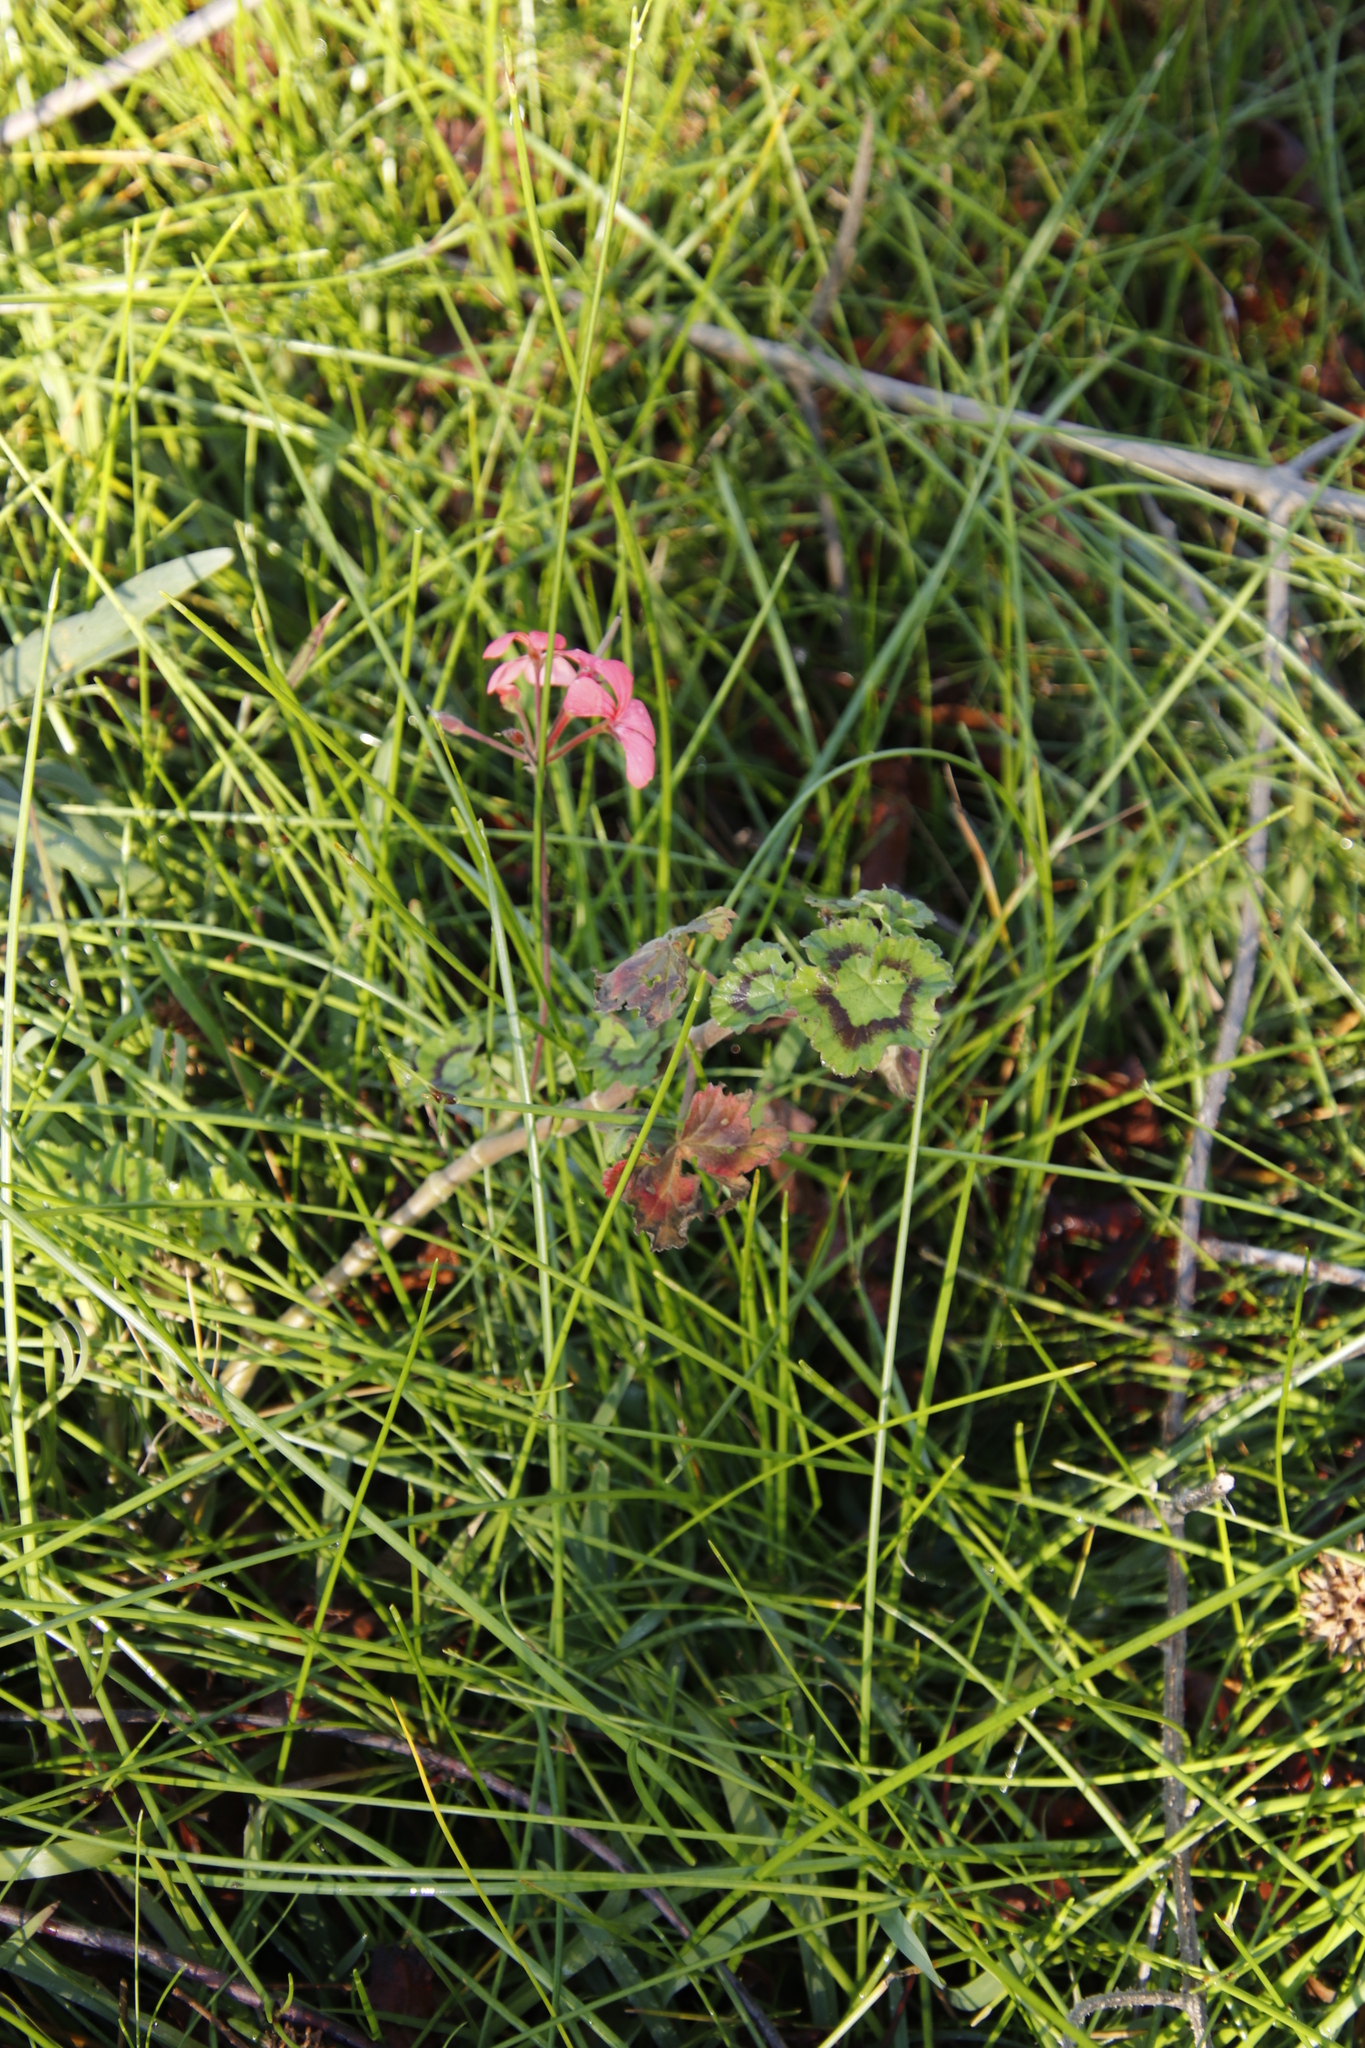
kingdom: Plantae
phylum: Tracheophyta
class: Magnoliopsida
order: Geraniales
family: Geraniaceae
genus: Pelargonium
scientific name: Pelargonium hybridum
